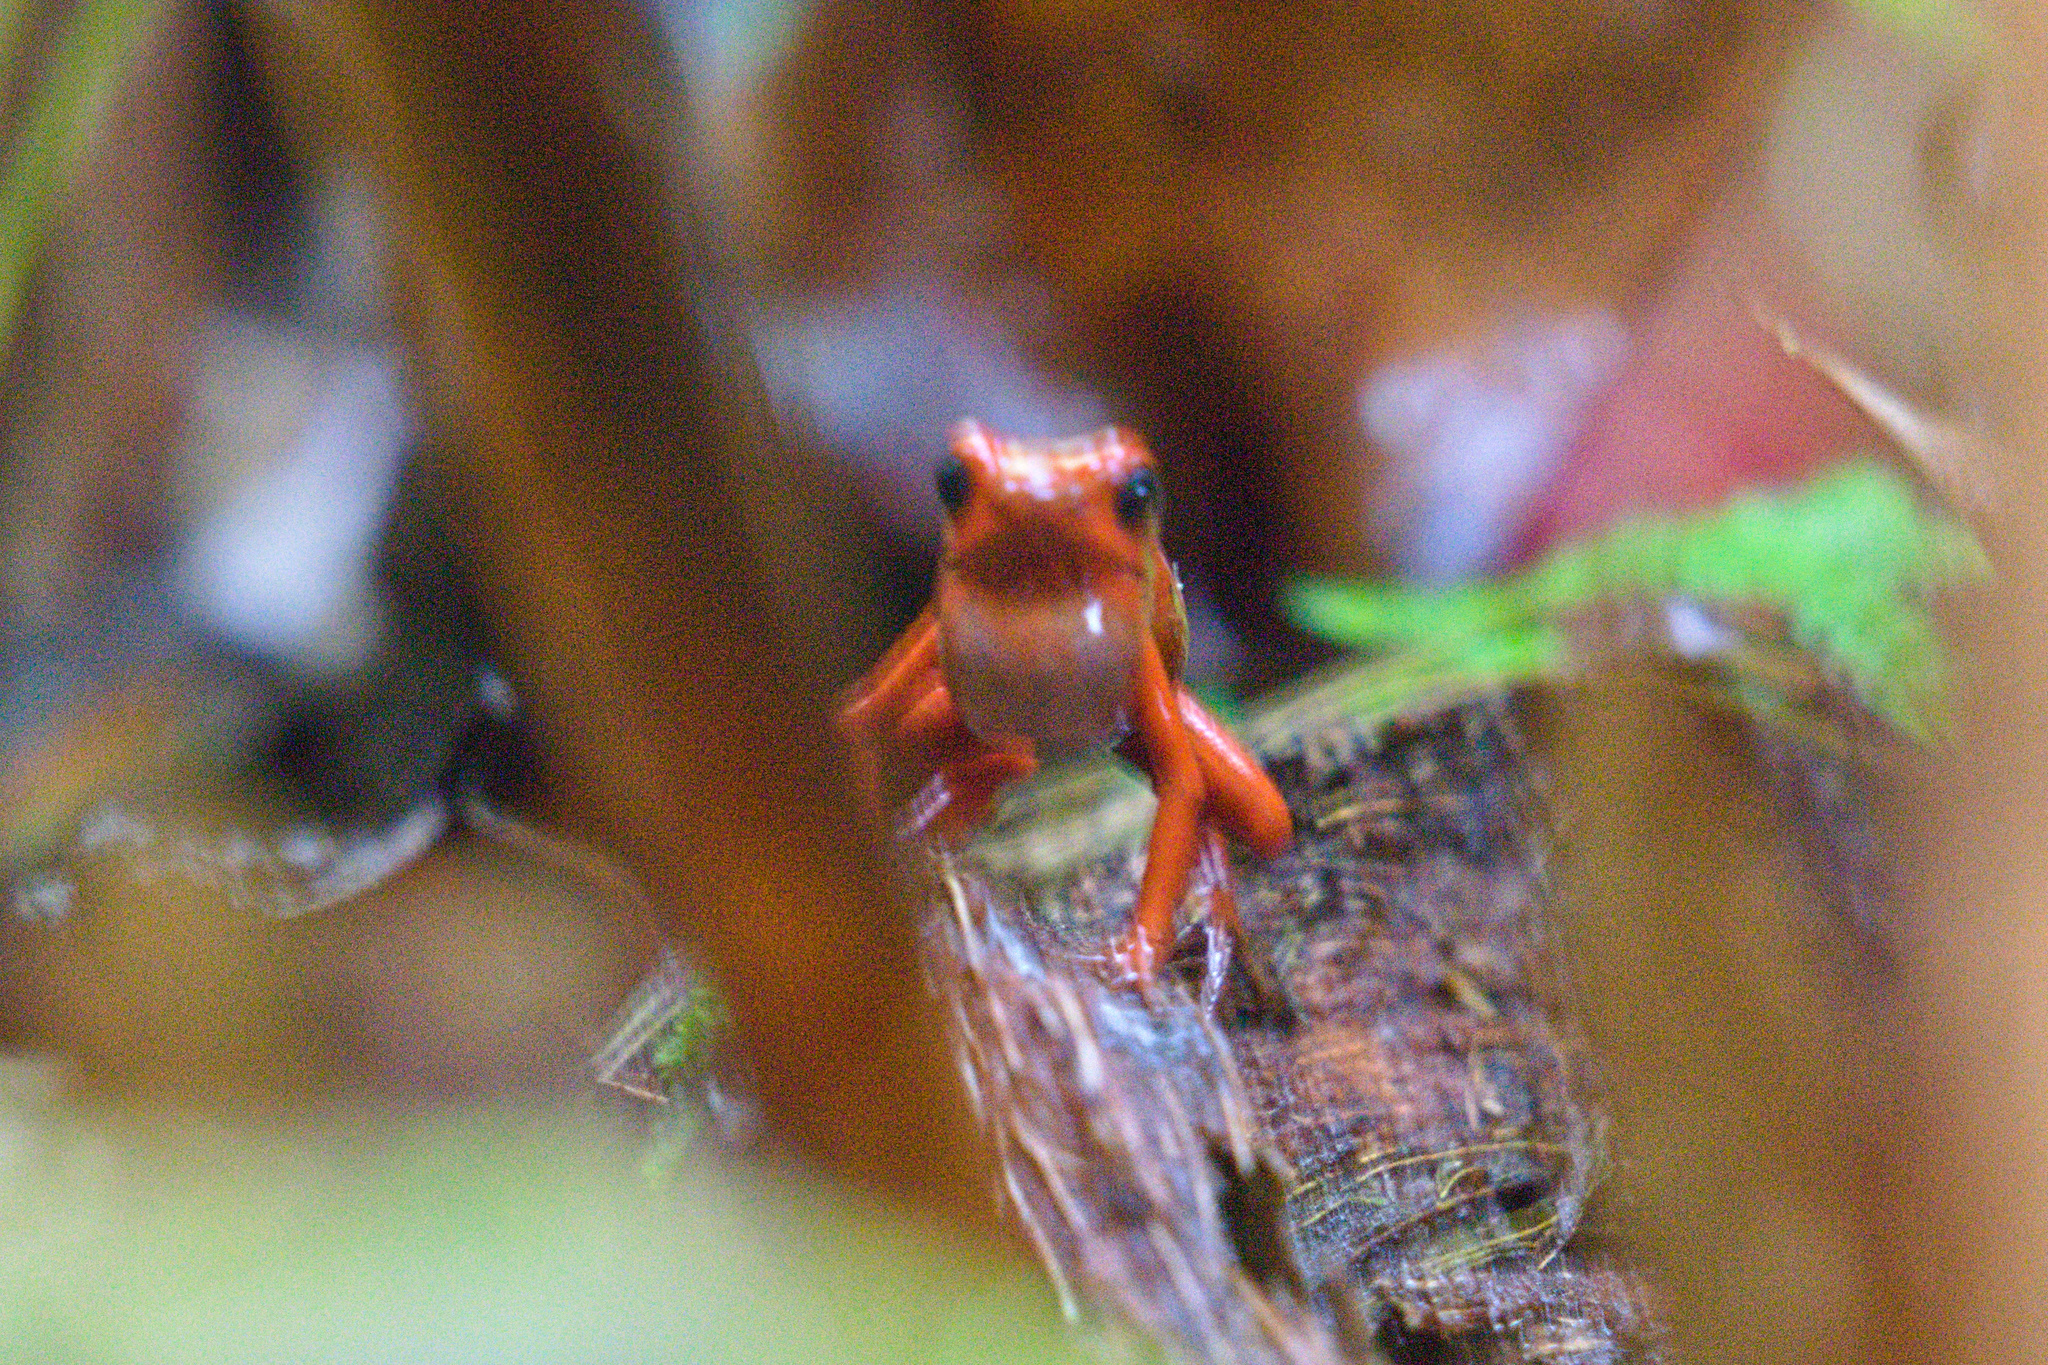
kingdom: Animalia
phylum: Chordata
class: Amphibia
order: Anura
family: Dendrobatidae
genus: Oophaga
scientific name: Oophaga pumilio
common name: Flaming poison frog
